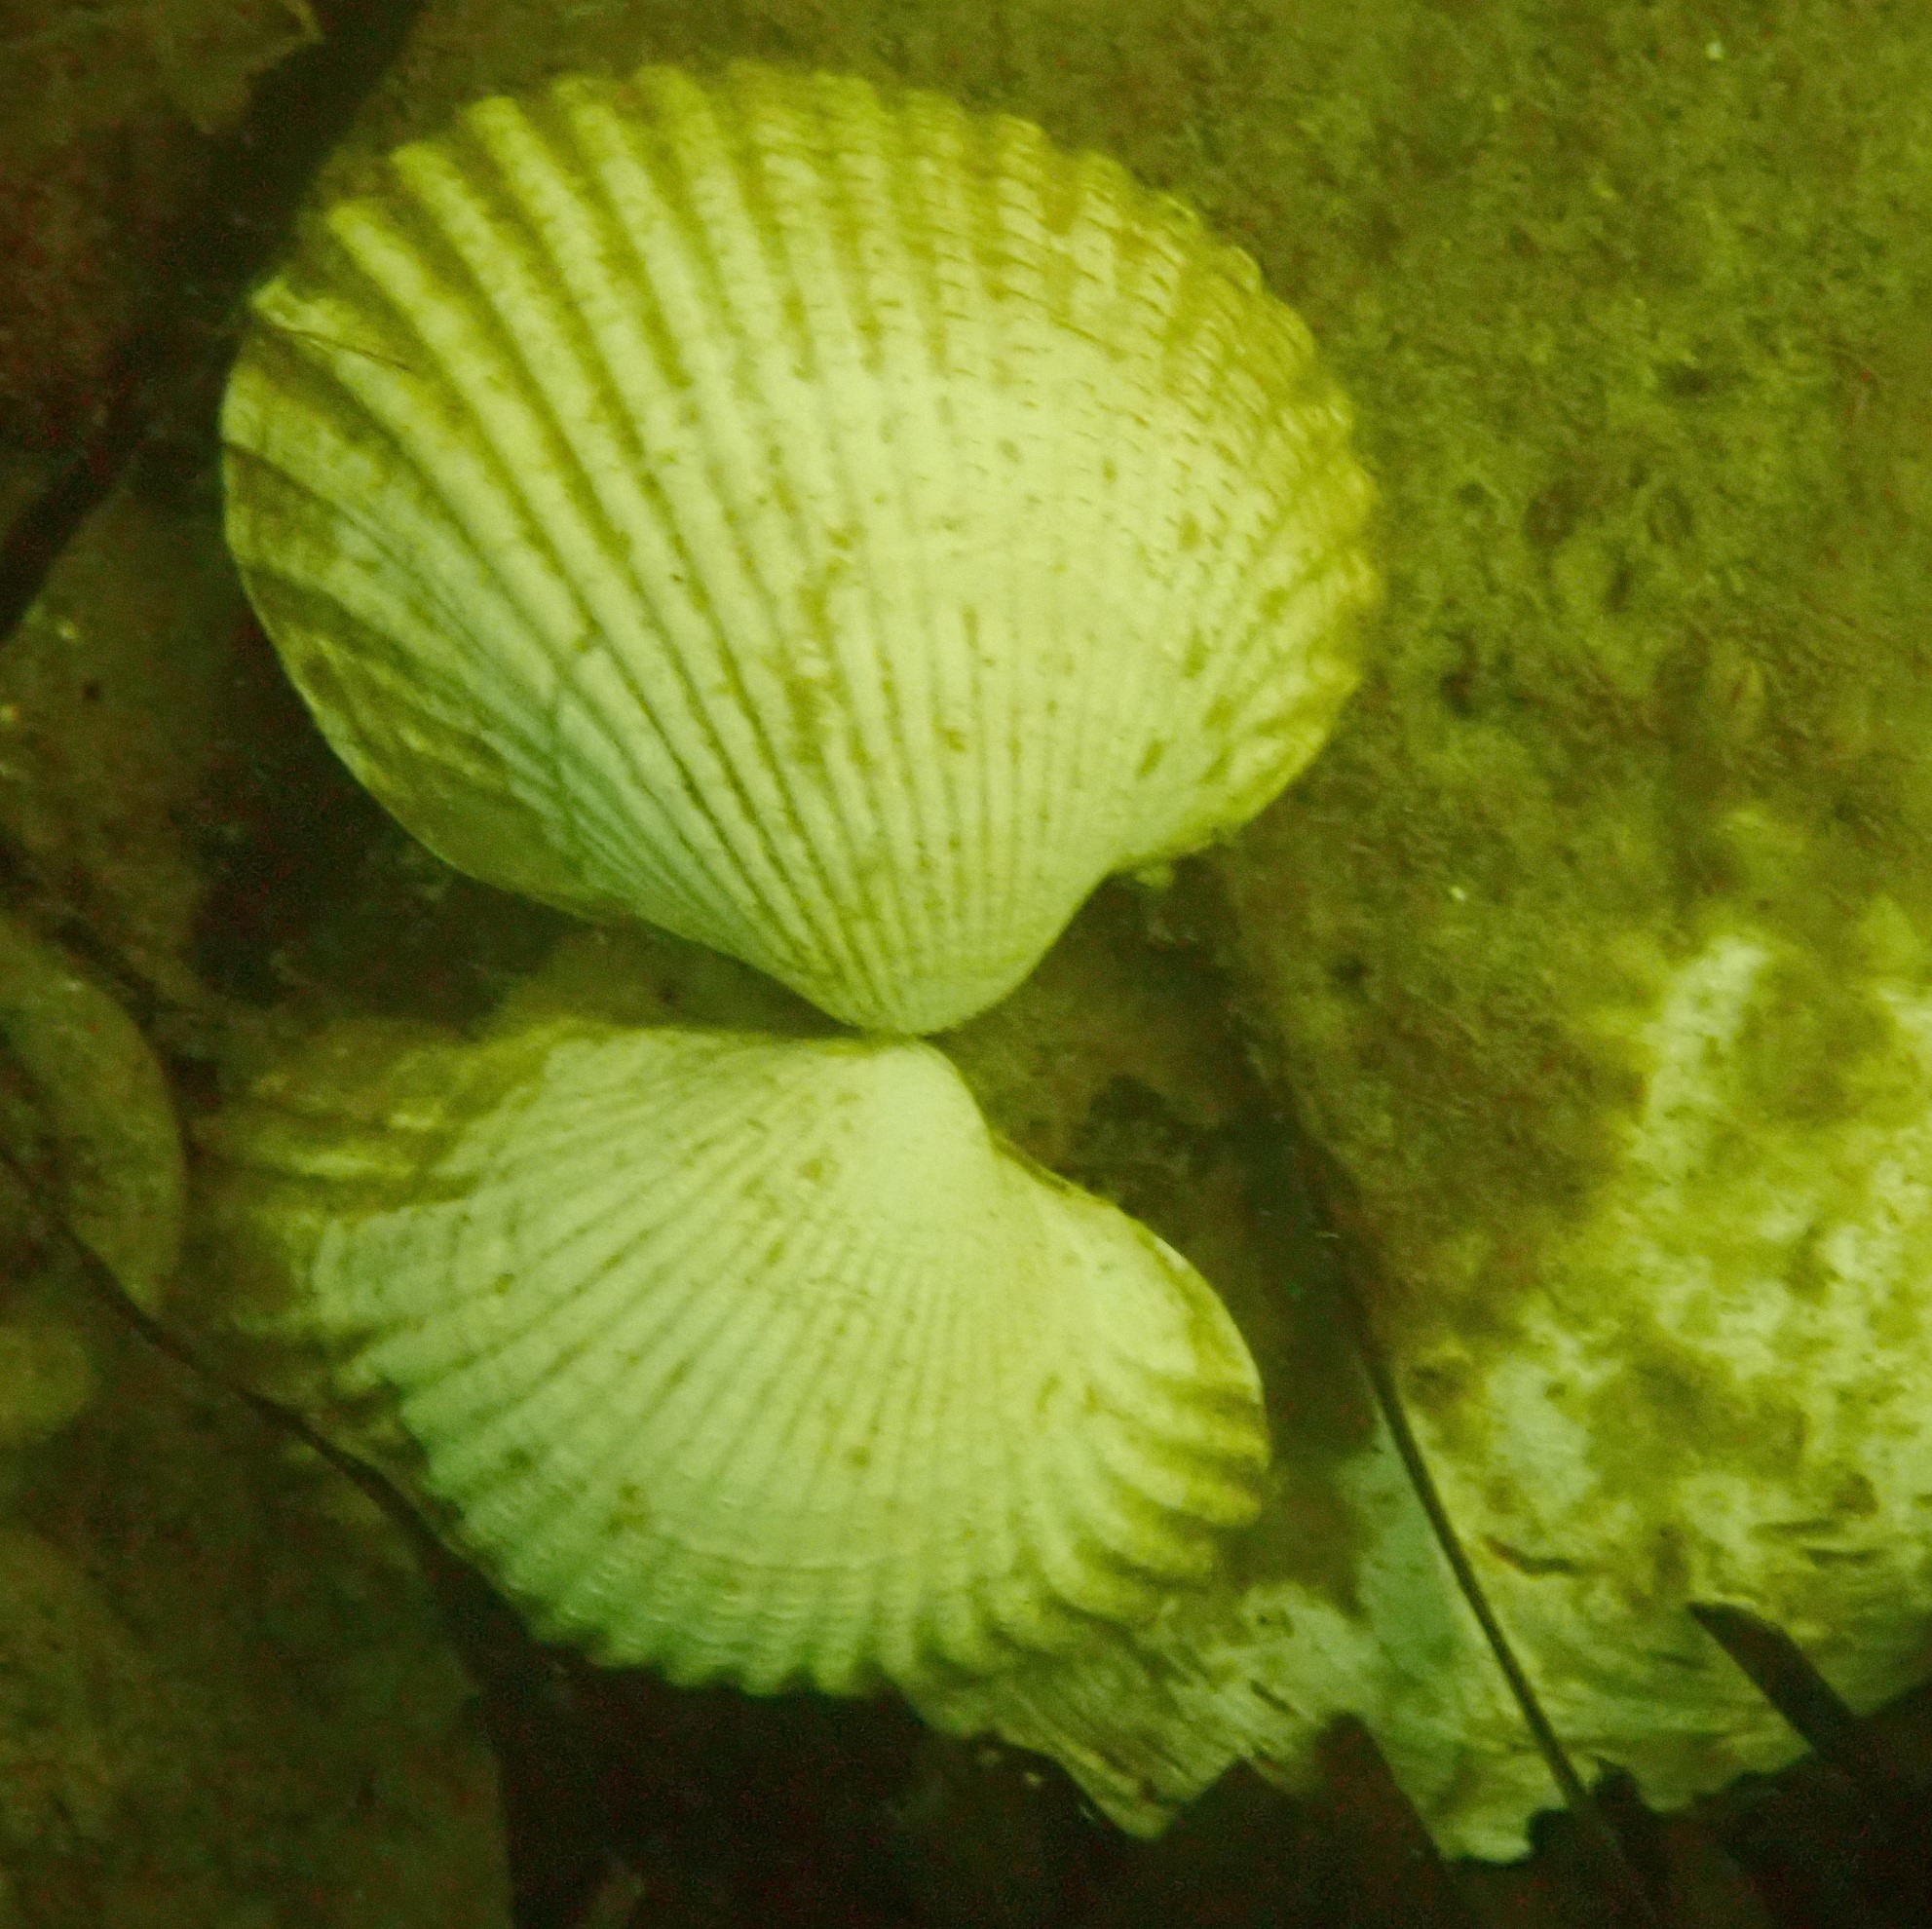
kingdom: Animalia
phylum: Mollusca
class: Bivalvia
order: Cardiida
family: Cardiidae
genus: Cerastoderma
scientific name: Cerastoderma edule
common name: Common cockle
